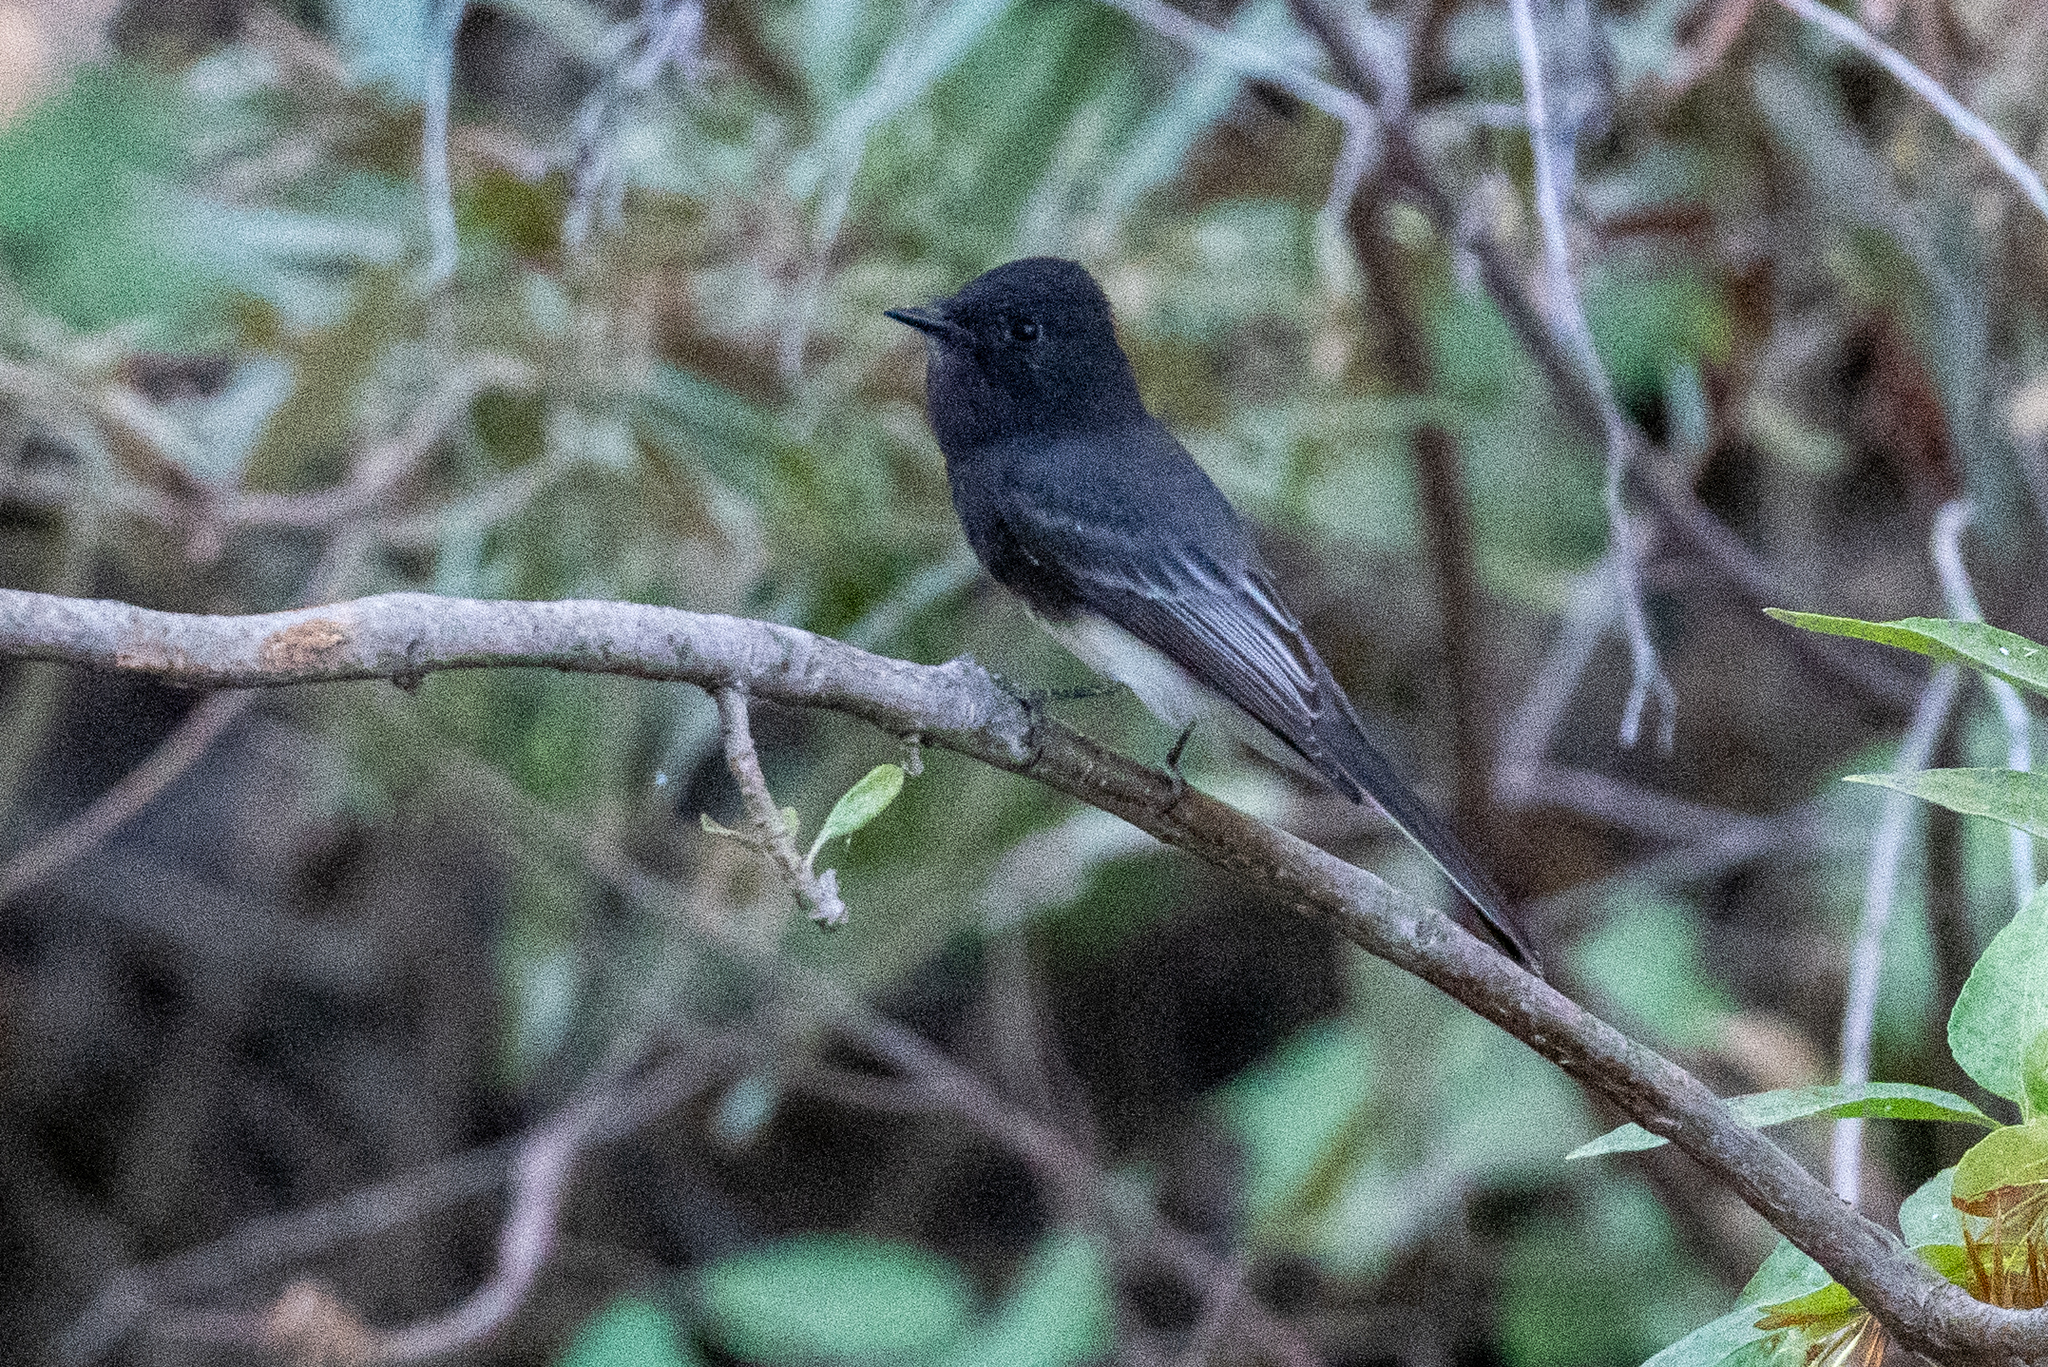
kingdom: Animalia
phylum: Chordata
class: Aves
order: Passeriformes
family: Tyrannidae
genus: Sayornis
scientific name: Sayornis nigricans
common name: Black phoebe
